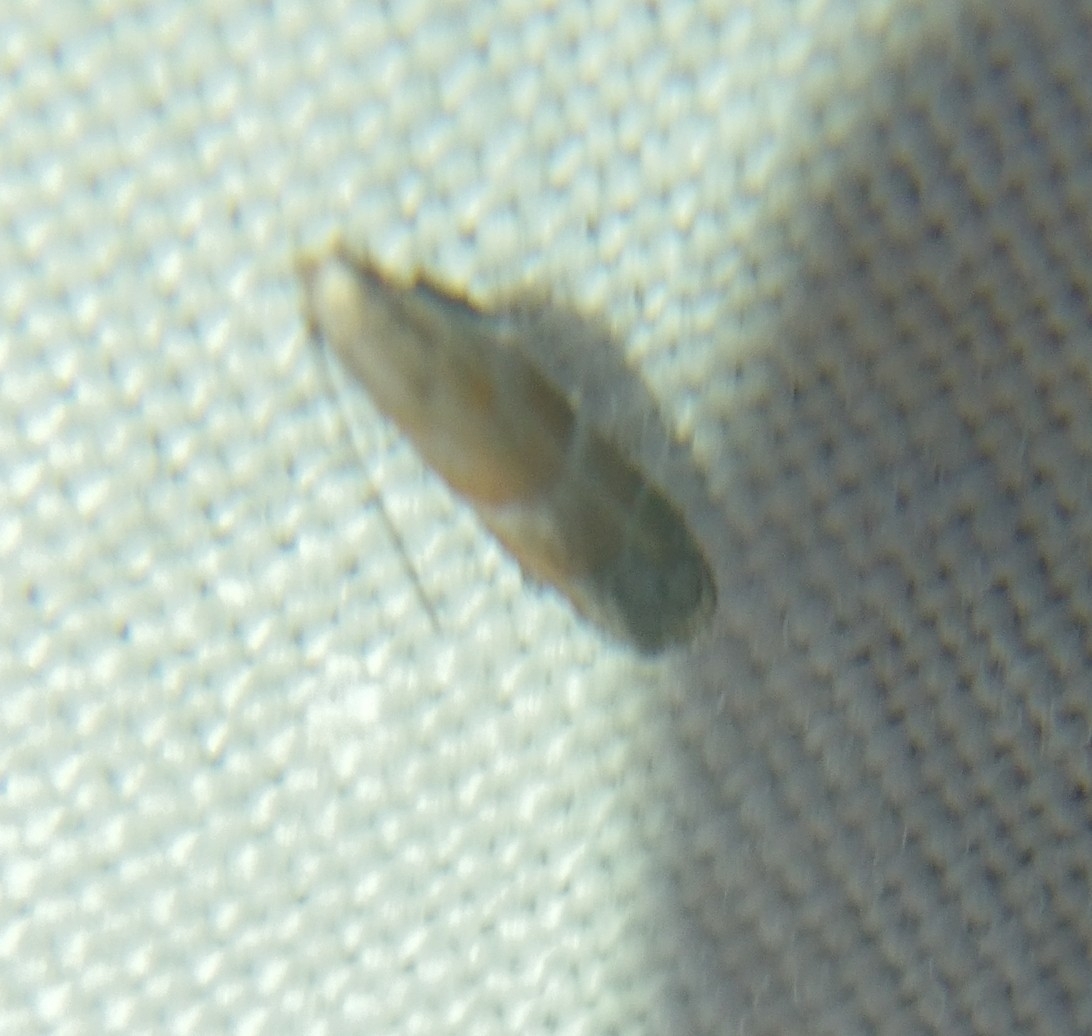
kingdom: Animalia
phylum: Arthropoda
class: Insecta
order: Lepidoptera
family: Gelechiidae
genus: Battaristis
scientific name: Battaristis vittella
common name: Orange stripe-backed moth
